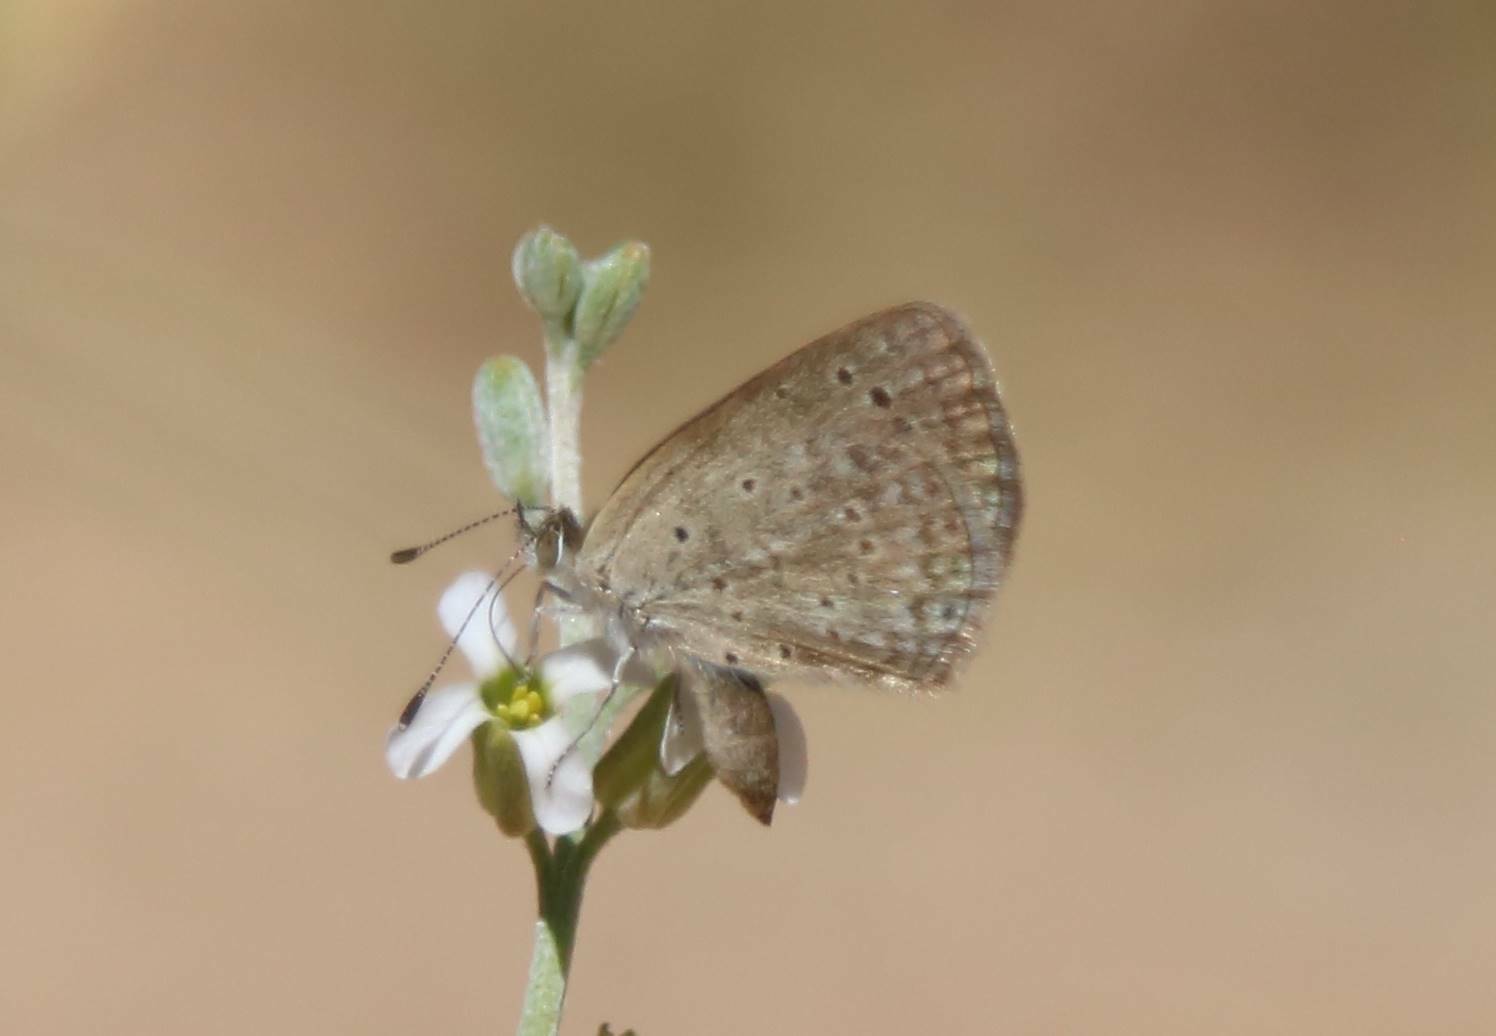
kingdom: Animalia
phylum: Arthropoda
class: Insecta
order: Lepidoptera
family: Lycaenidae
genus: Zizeeria
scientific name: Zizeeria knysna
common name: African grass blue
